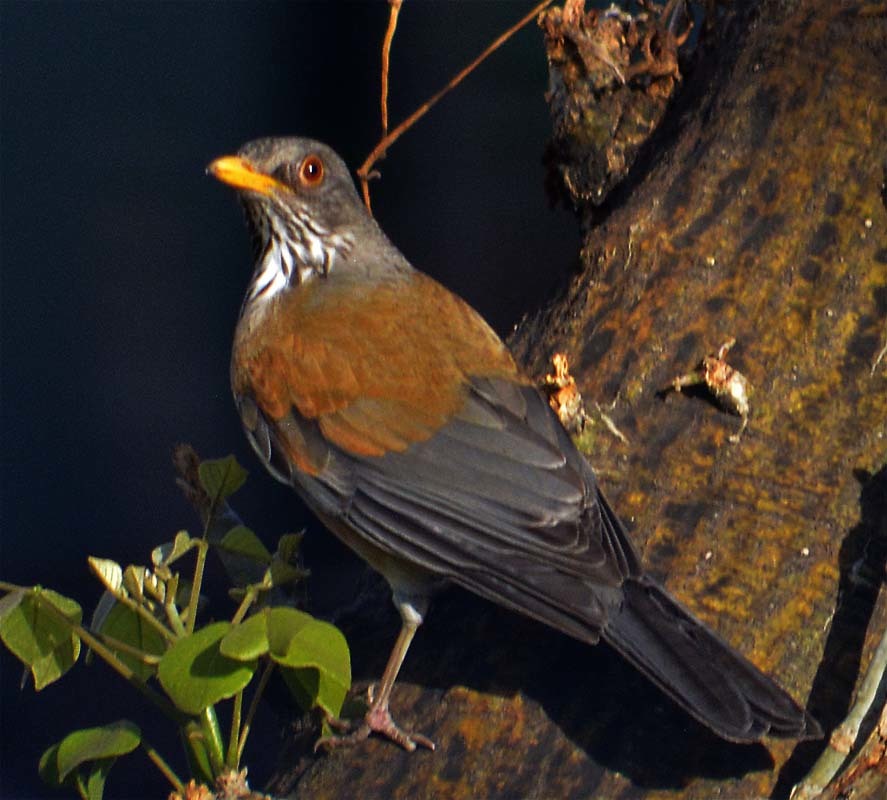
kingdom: Animalia
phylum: Chordata
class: Aves
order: Passeriformes
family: Turdidae
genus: Turdus
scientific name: Turdus rufopalliatus
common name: Rufous-backed robin
